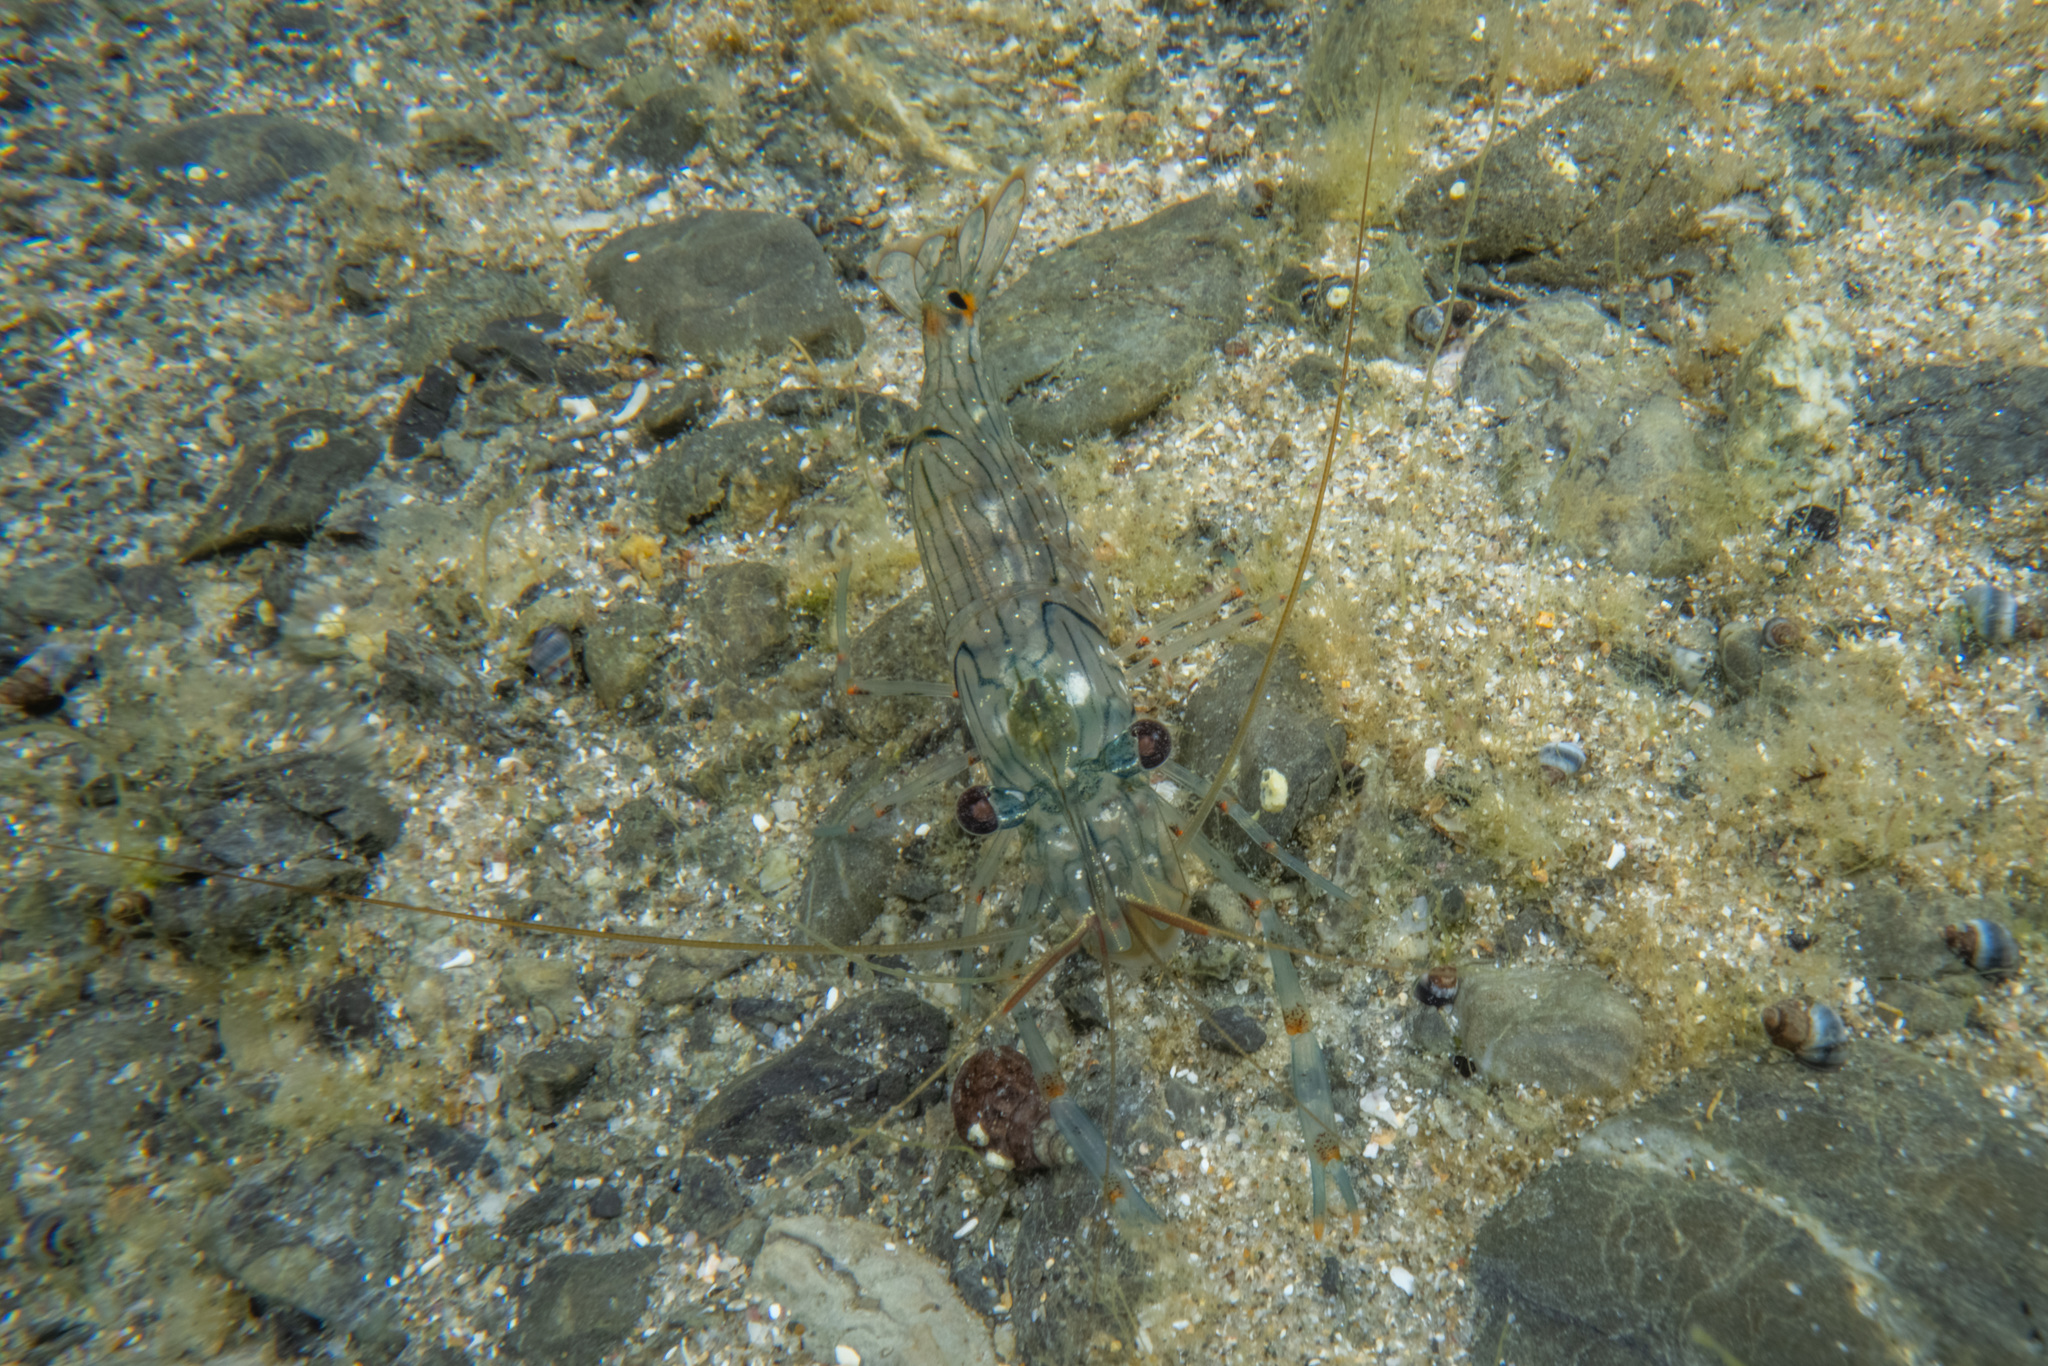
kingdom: Animalia
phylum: Arthropoda
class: Malacostraca
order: Decapoda
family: Palaemonidae
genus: Palaemon
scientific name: Palaemon affinis
